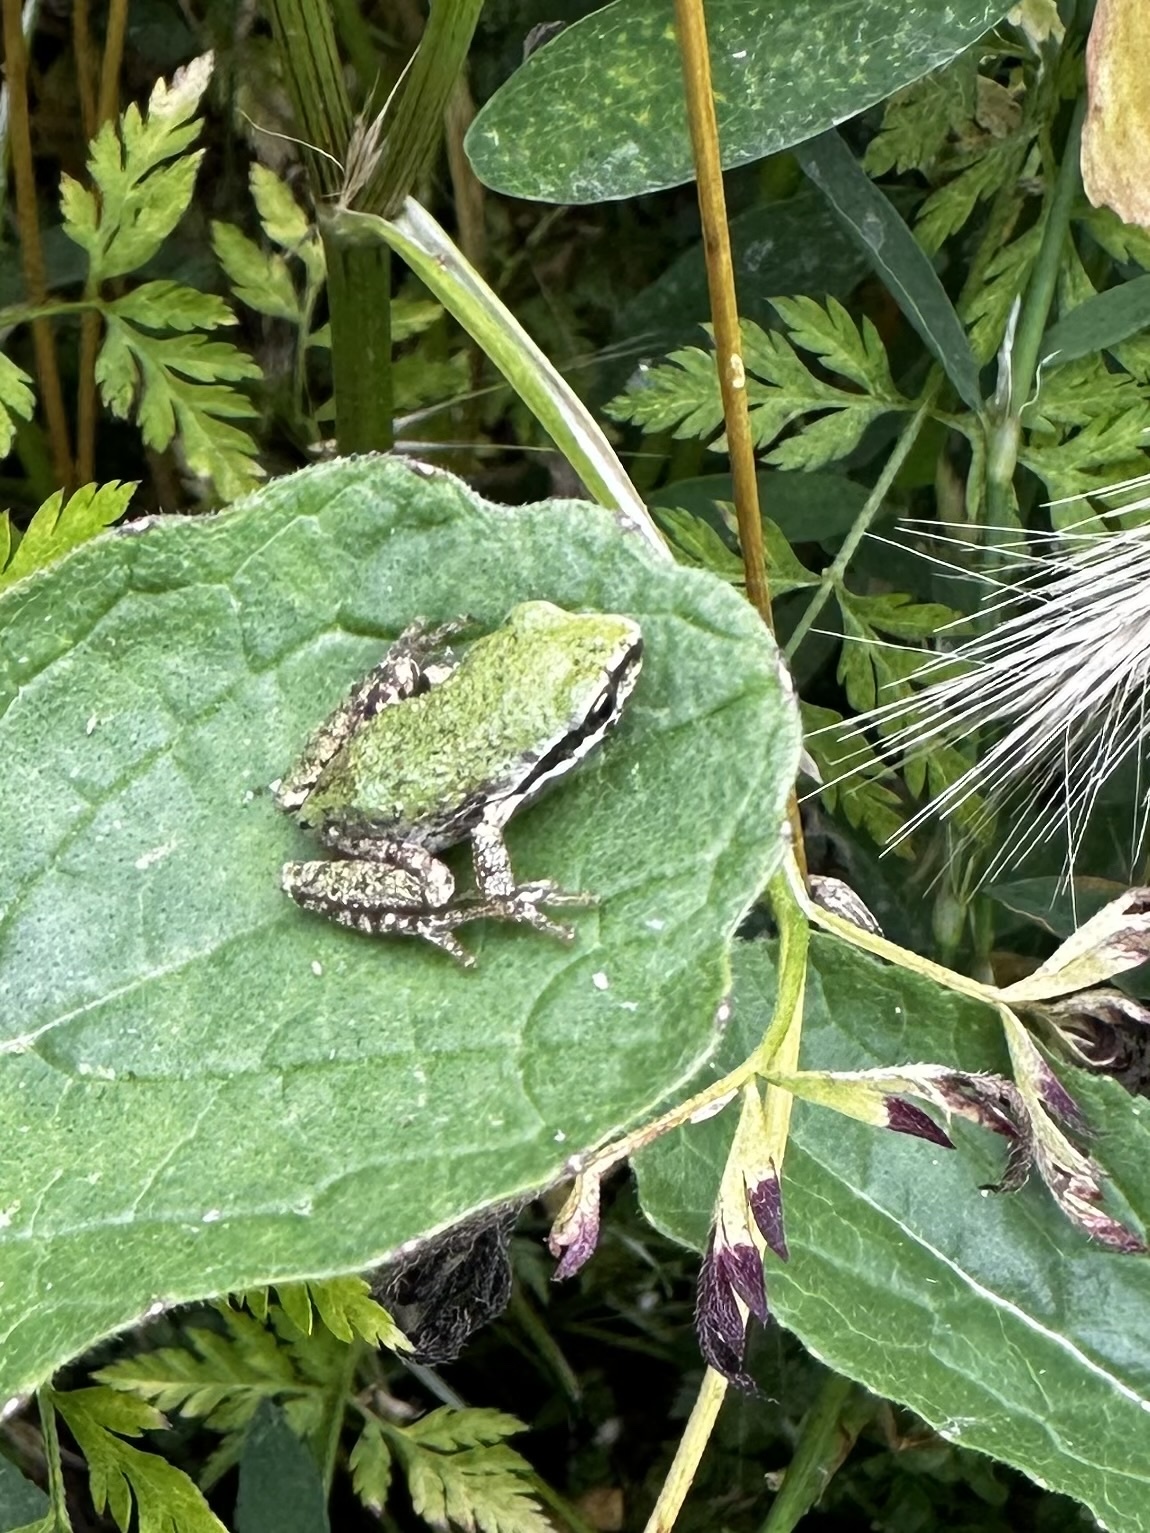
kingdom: Animalia
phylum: Chordata
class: Amphibia
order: Anura
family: Hylidae
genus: Pseudacris
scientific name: Pseudacris regilla
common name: Pacific chorus frog
